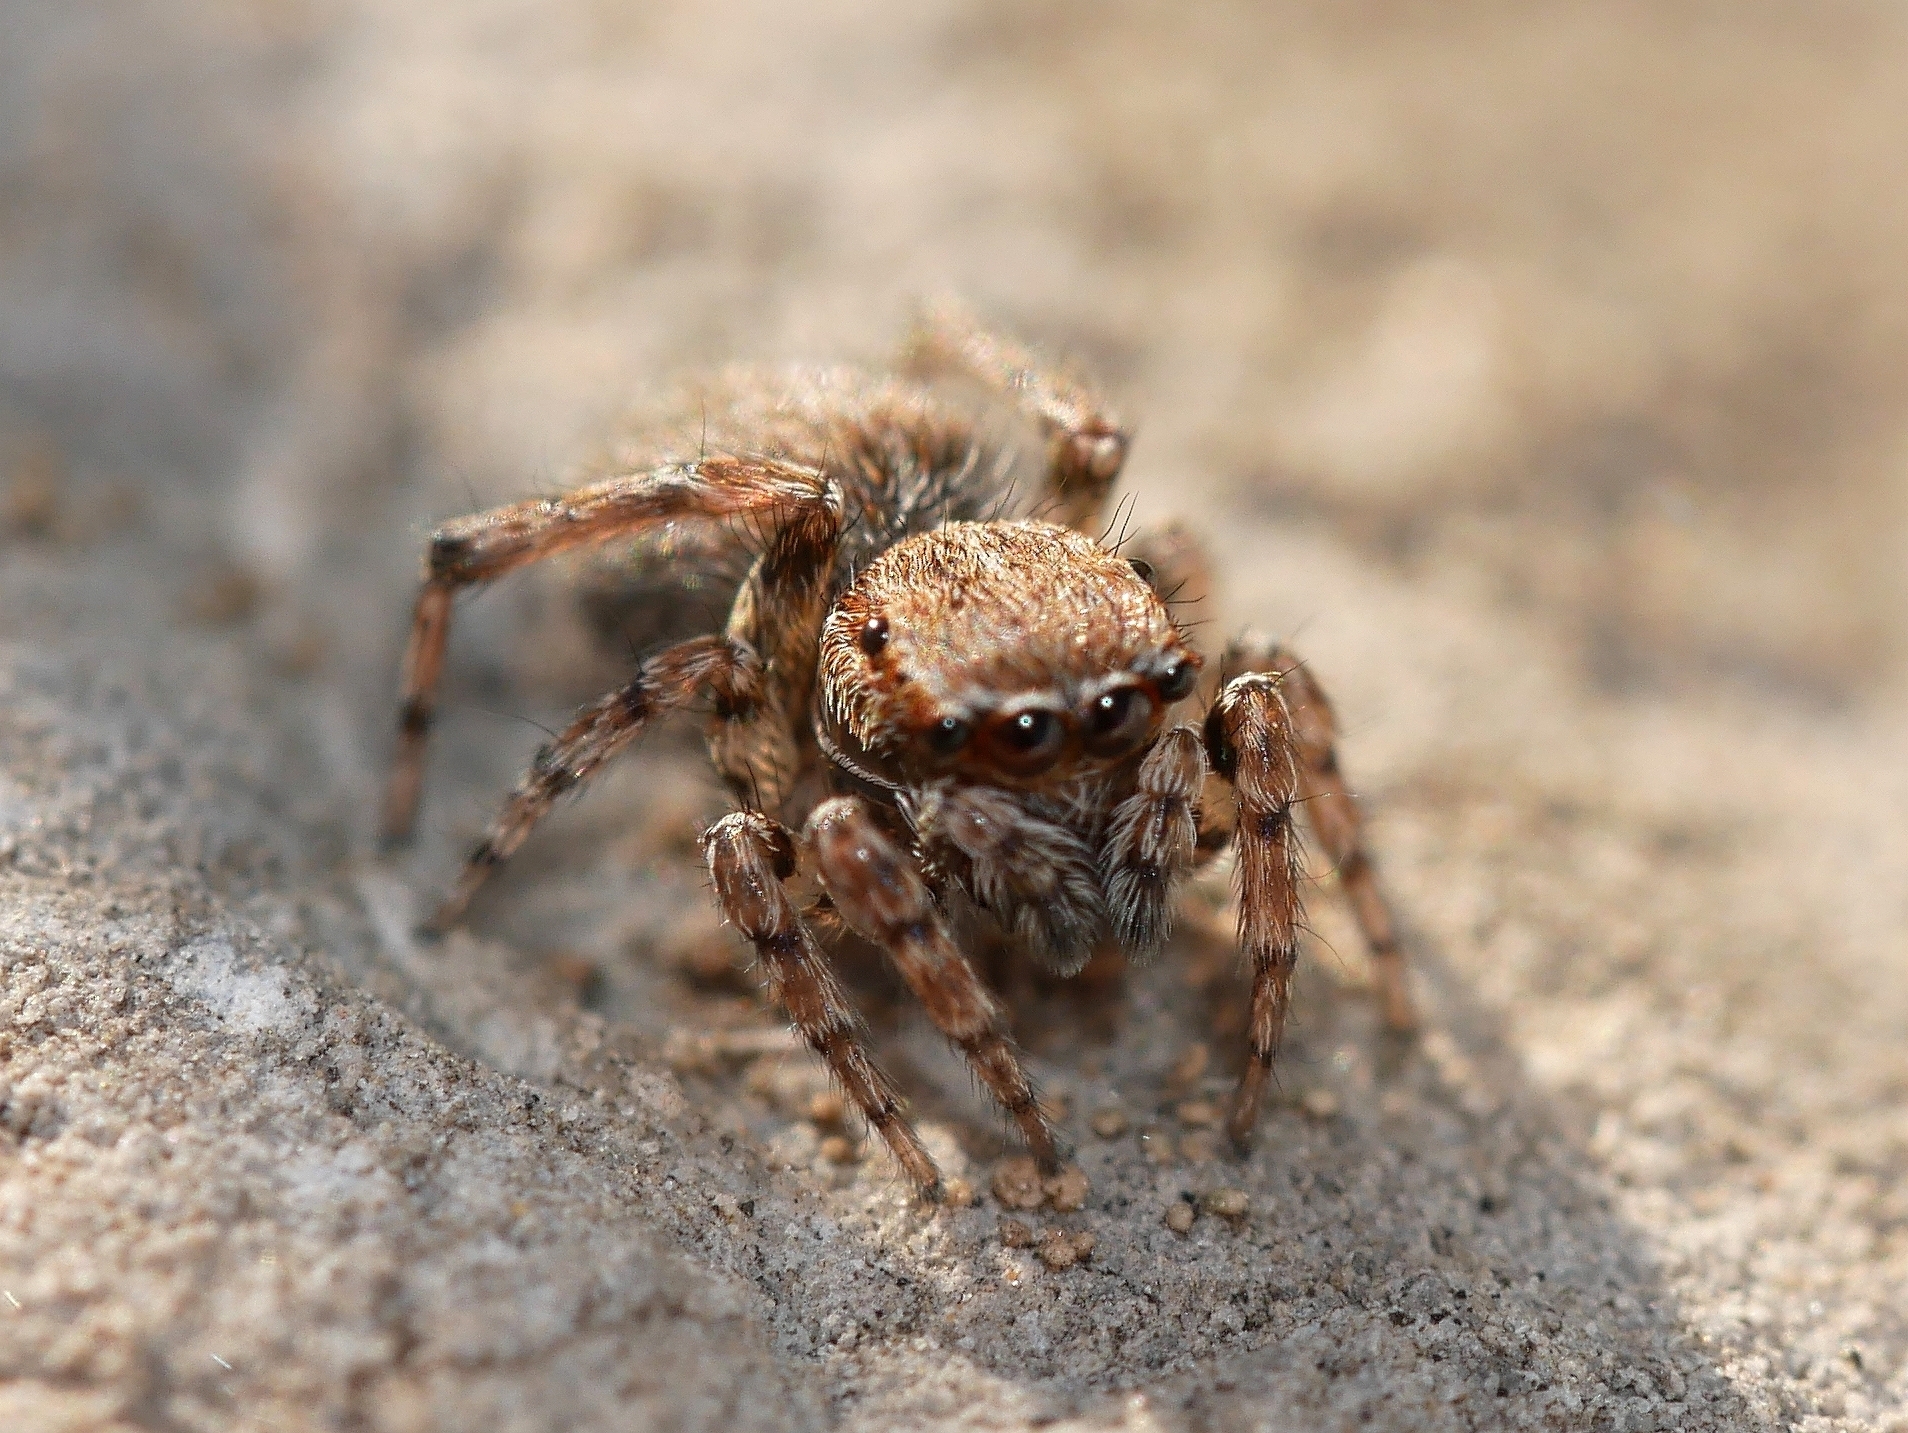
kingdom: Animalia
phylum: Arthropoda
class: Arachnida
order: Araneae
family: Salticidae
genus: Attinella
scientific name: Attinella dorsata
